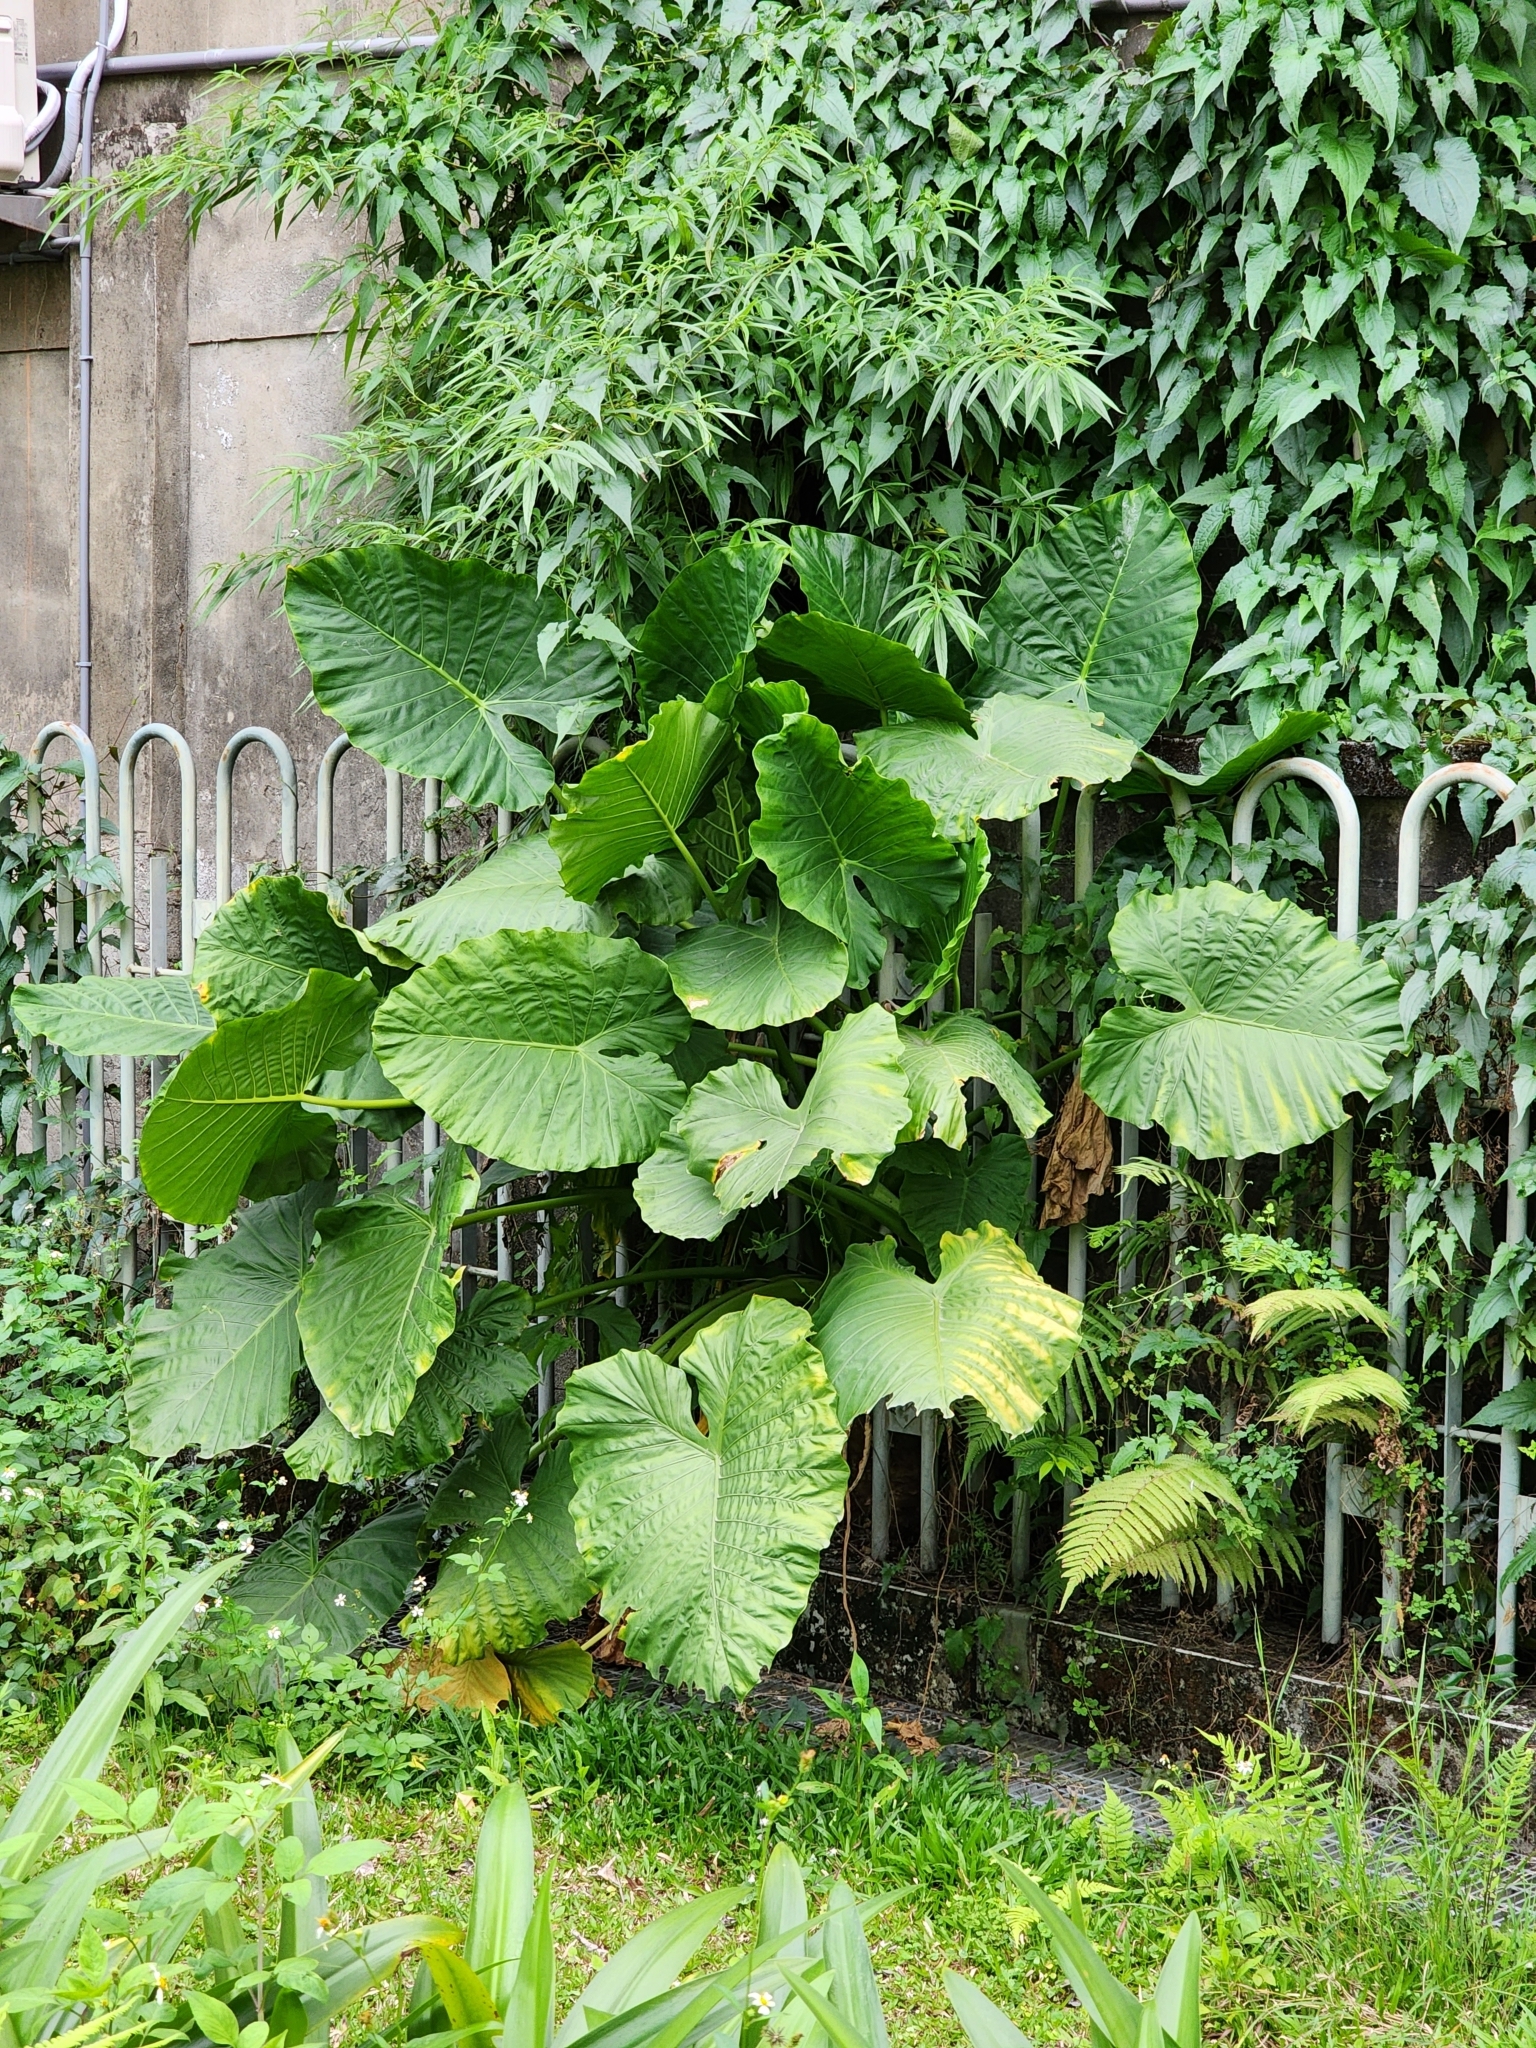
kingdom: Plantae
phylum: Tracheophyta
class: Liliopsida
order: Alismatales
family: Araceae
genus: Alocasia
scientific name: Alocasia odora
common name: Asian taro
